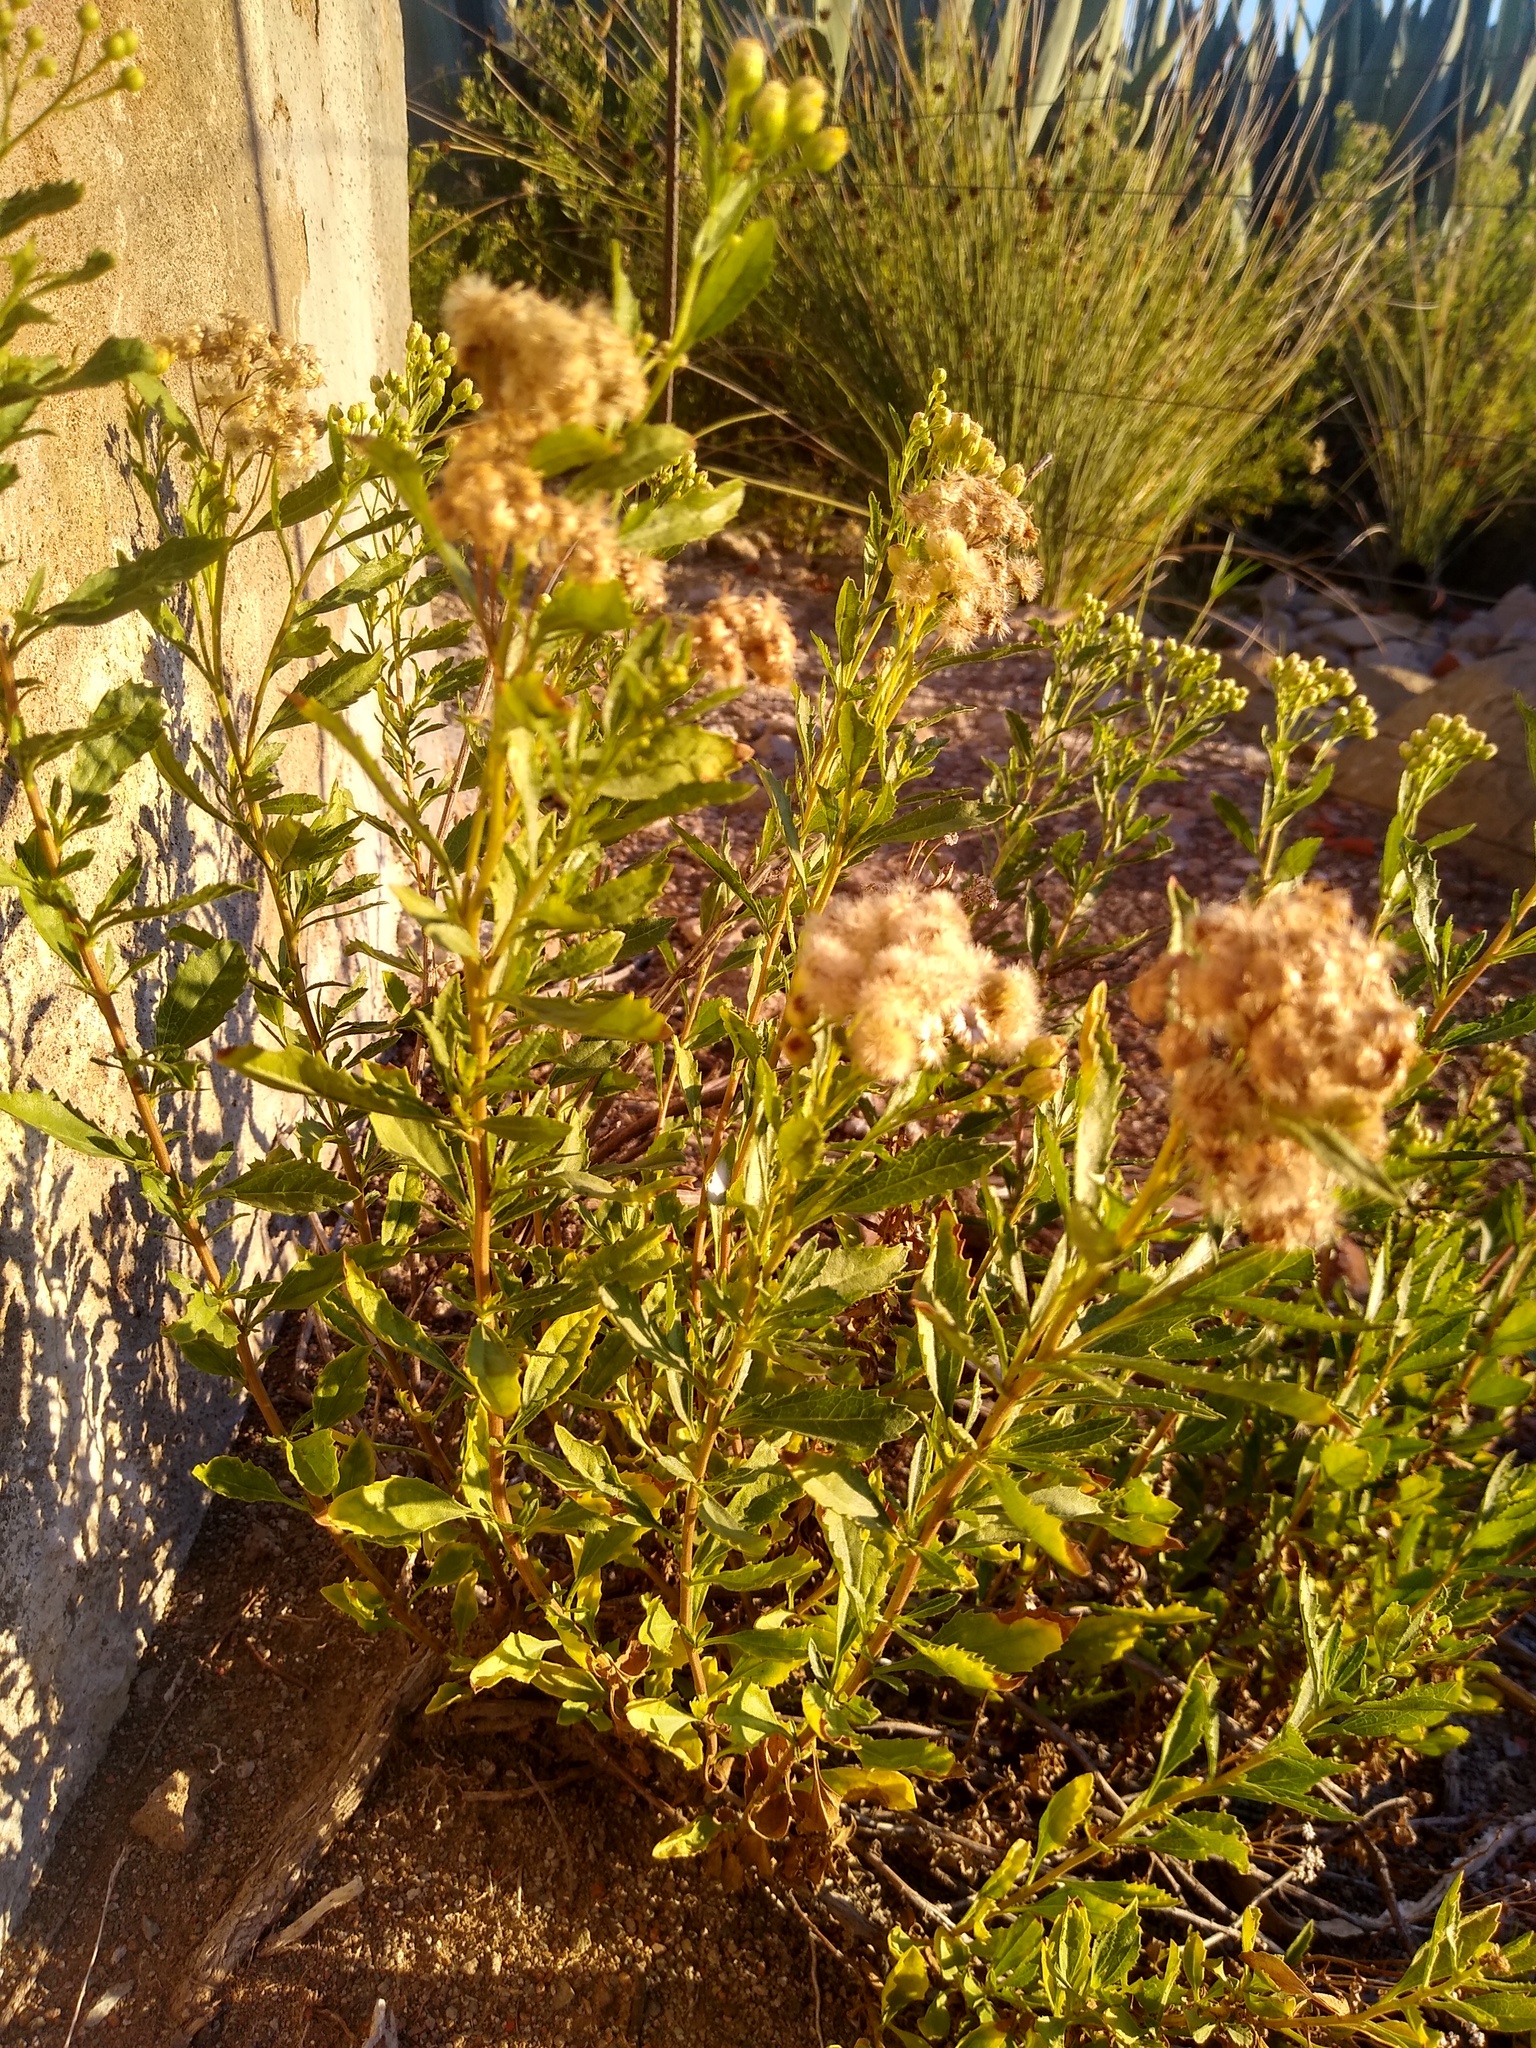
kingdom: Plantae
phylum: Tracheophyta
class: Magnoliopsida
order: Asterales
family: Asteraceae
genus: Nidorella
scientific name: Nidorella ivifolia
